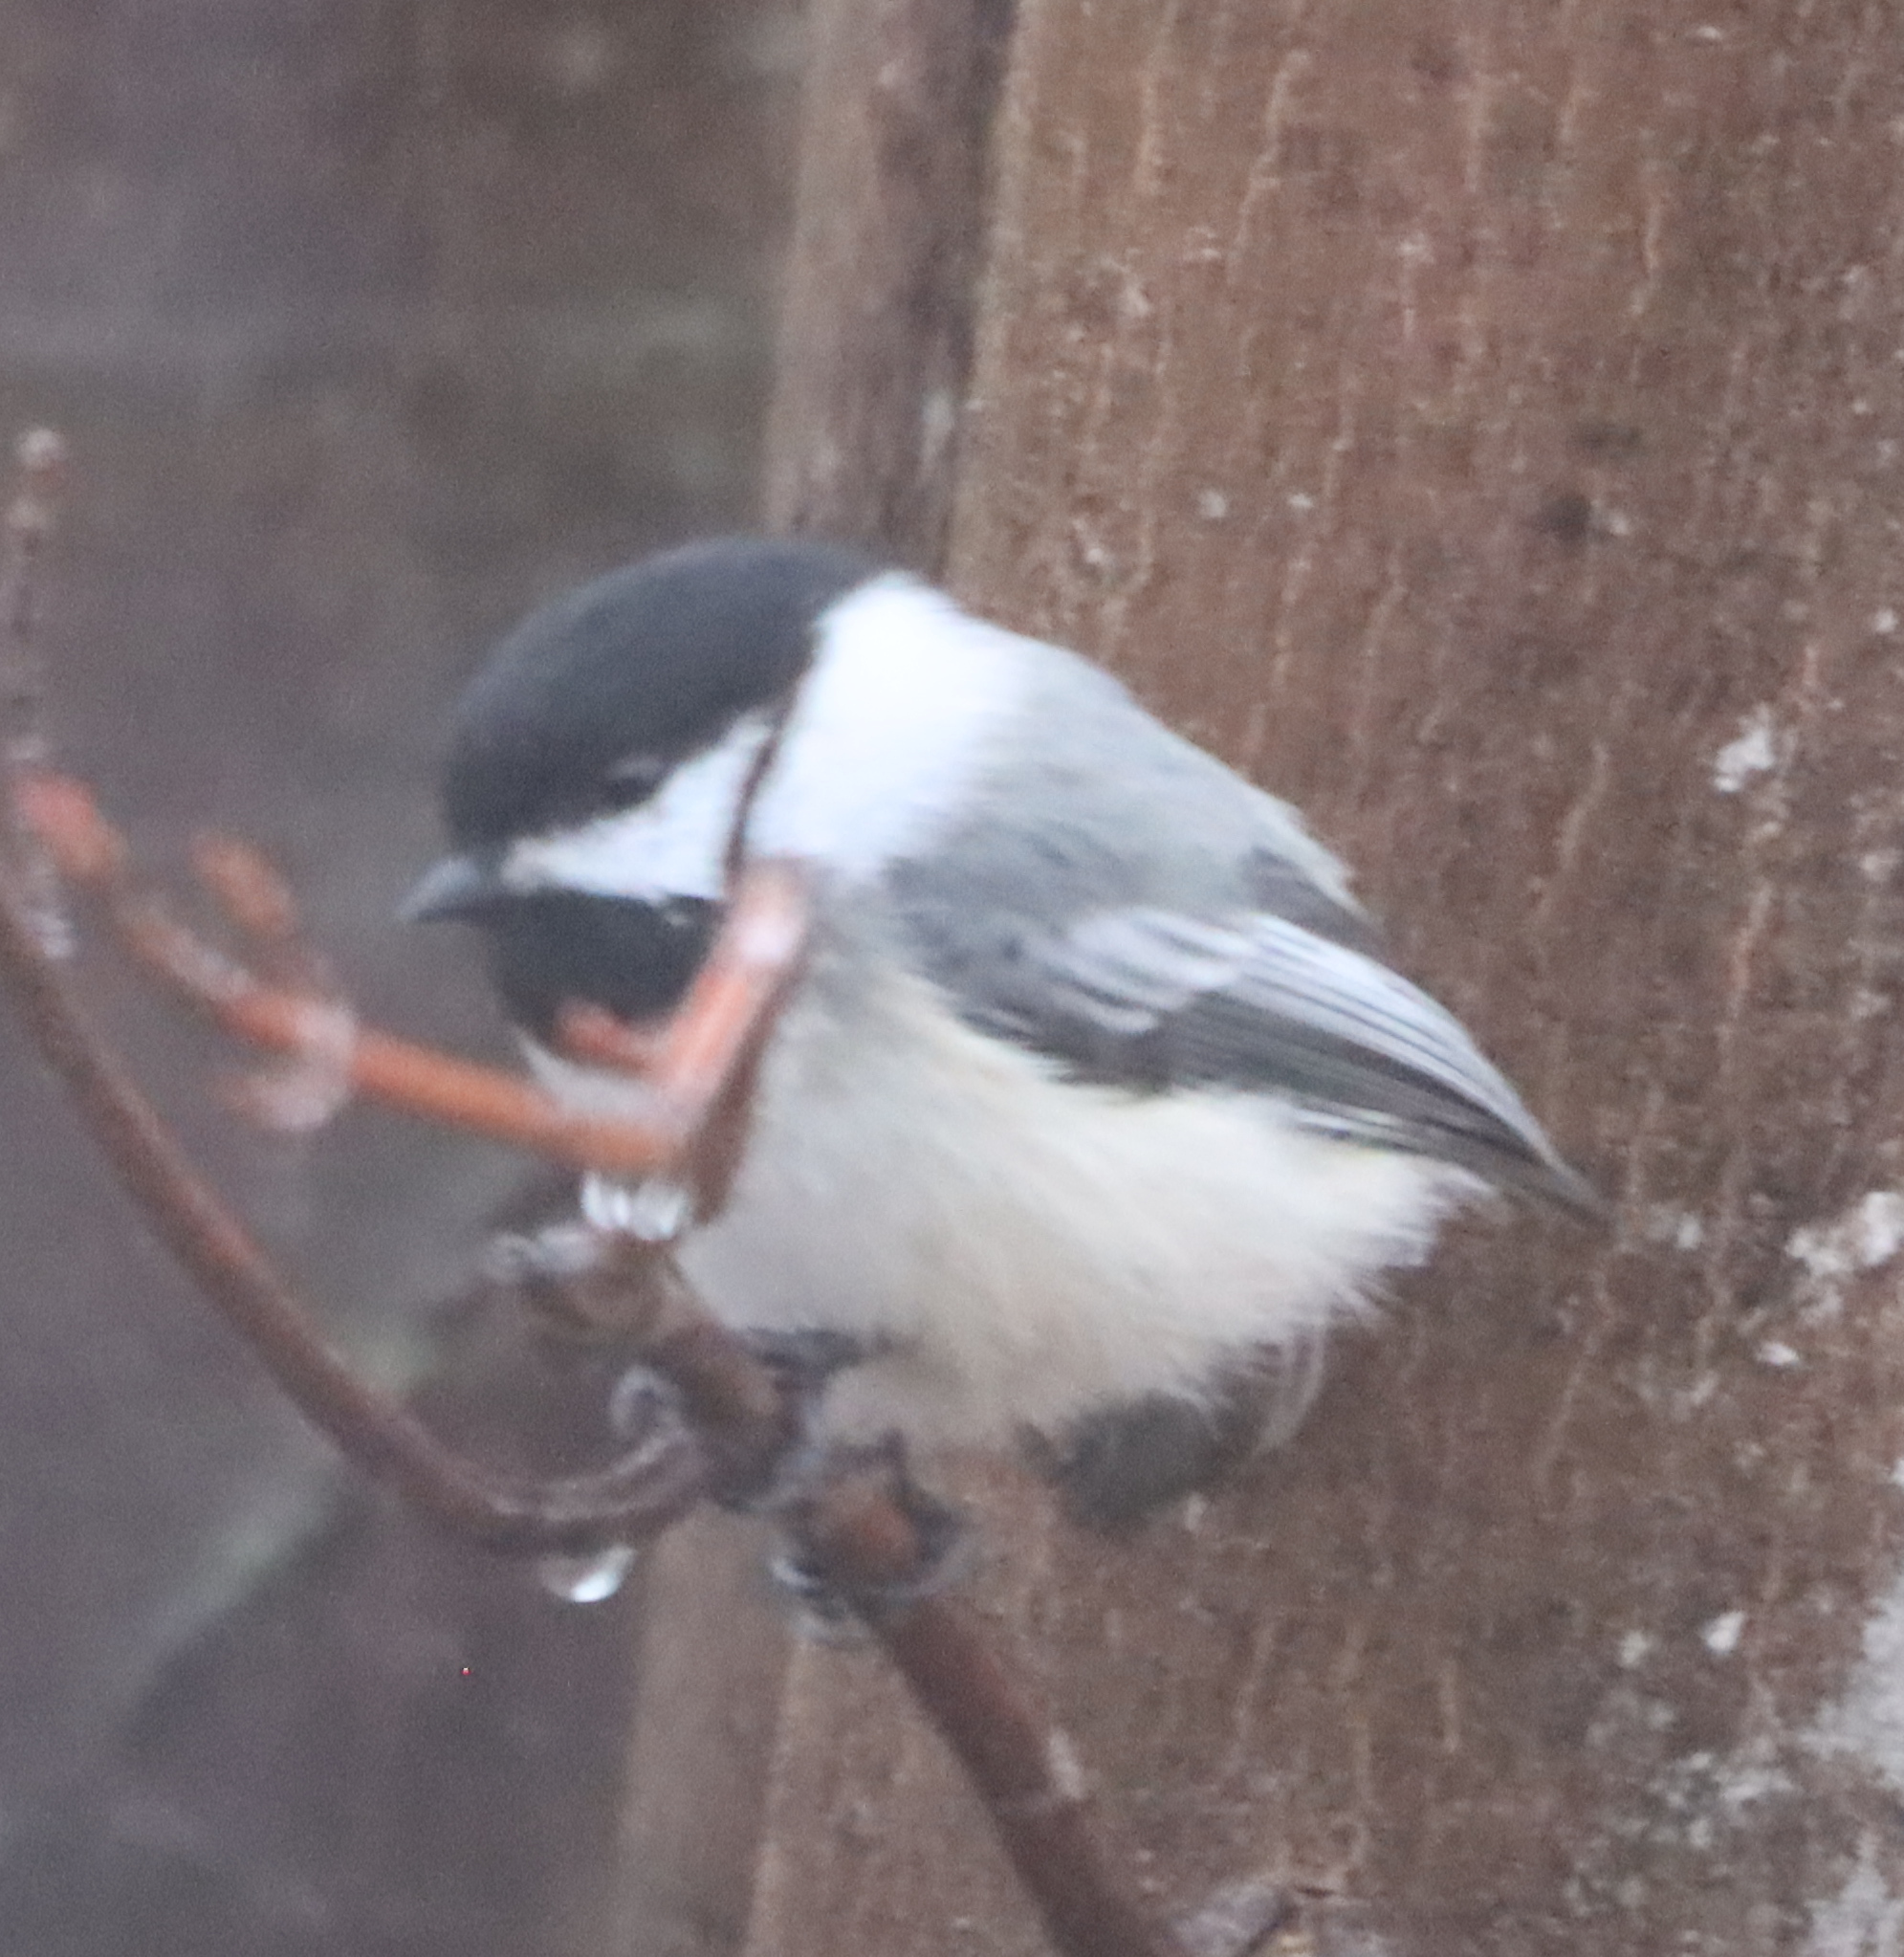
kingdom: Animalia
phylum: Chordata
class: Aves
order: Passeriformes
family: Paridae
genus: Poecile
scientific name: Poecile atricapillus
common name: Black-capped chickadee
